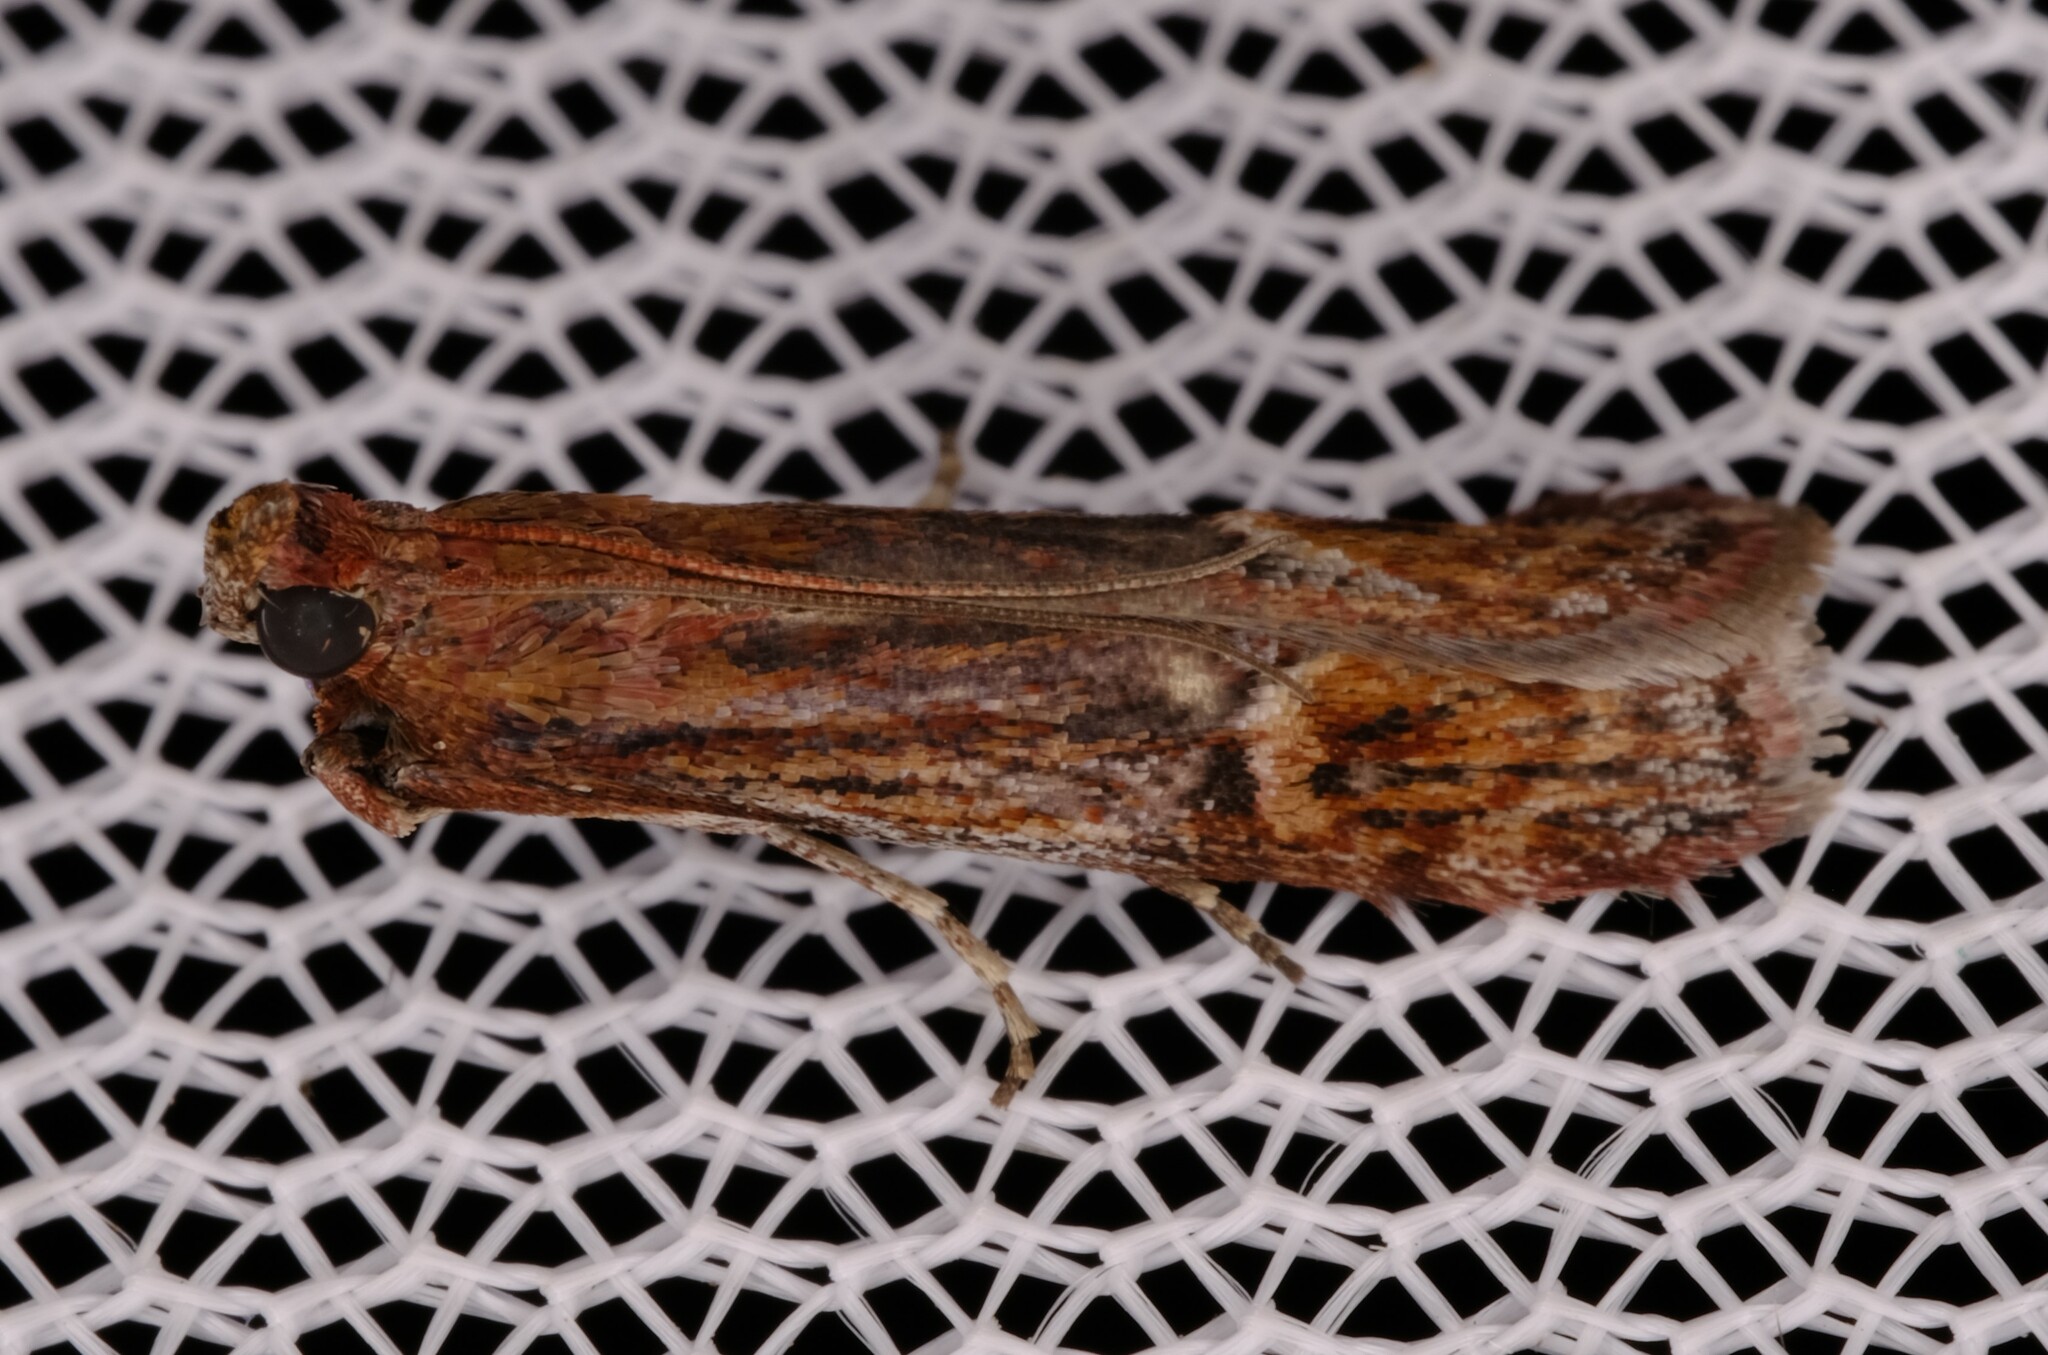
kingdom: Animalia
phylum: Arthropoda
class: Insecta
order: Lepidoptera
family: Pyralidae
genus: Balanomis
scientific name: Balanomis encyclia
